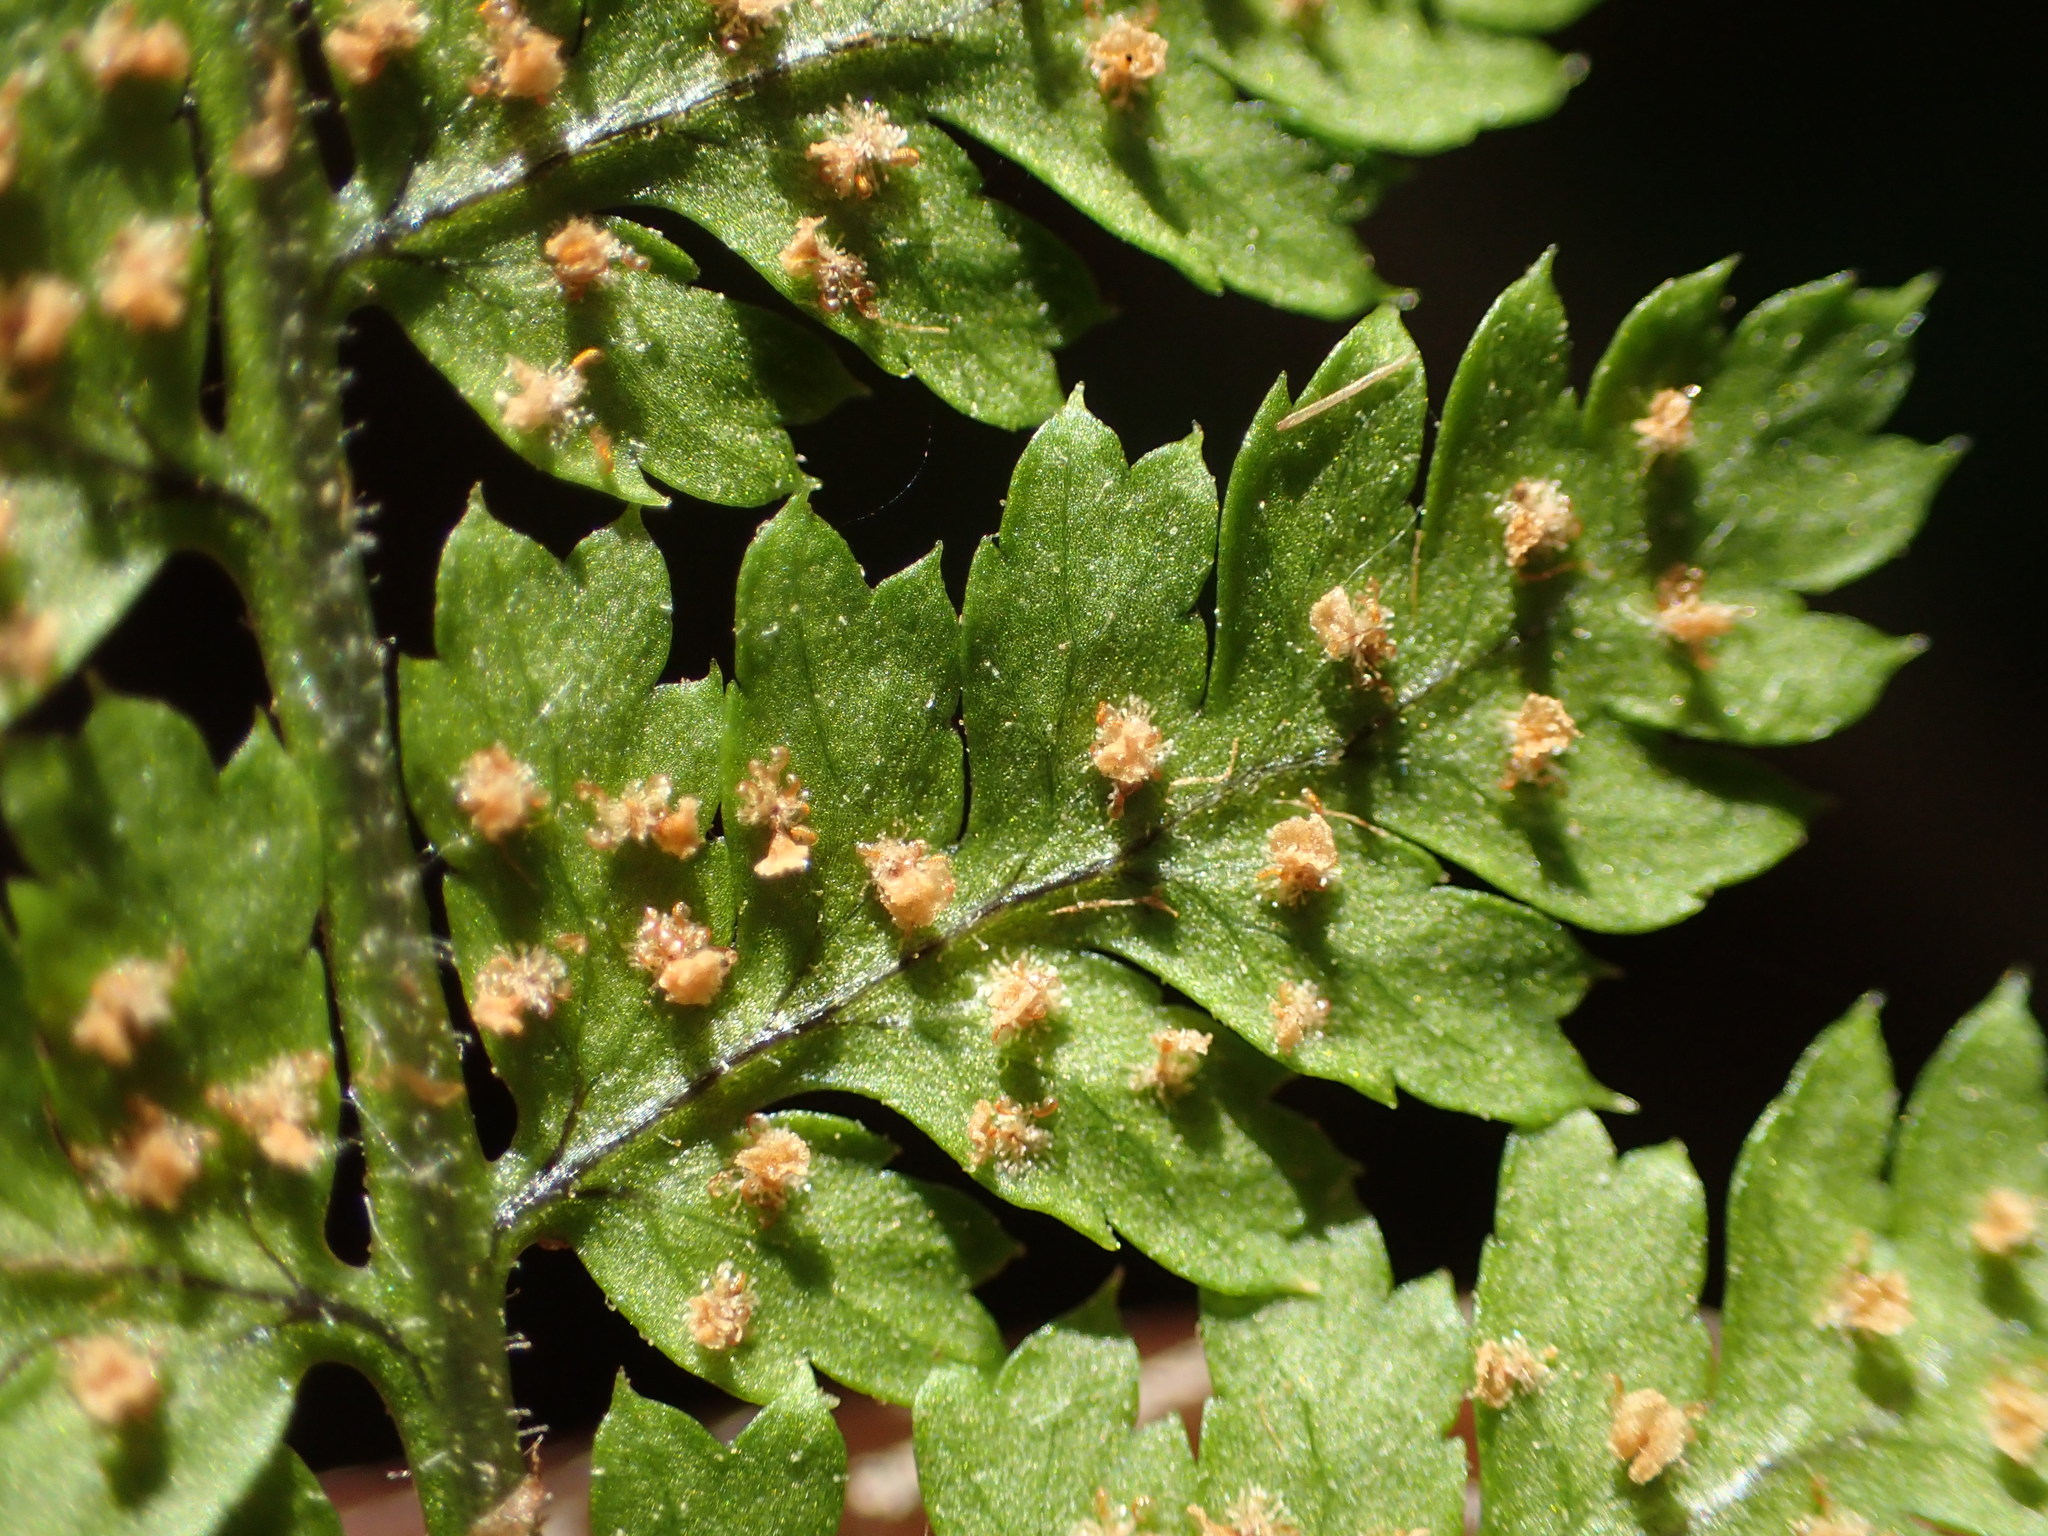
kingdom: Plantae
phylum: Tracheophyta
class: Polypodiopsida
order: Polypodiales
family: Dryopteridaceae
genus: Dryopteris
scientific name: Dryopteris carthusiana
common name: Narrow buckler-fern
